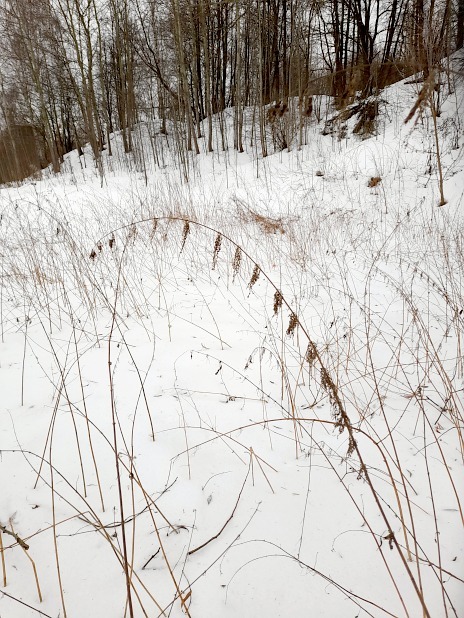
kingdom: Plantae
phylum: Tracheophyta
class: Magnoliopsida
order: Rosales
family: Urticaceae
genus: Urtica
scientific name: Urtica dioica
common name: Common nettle
